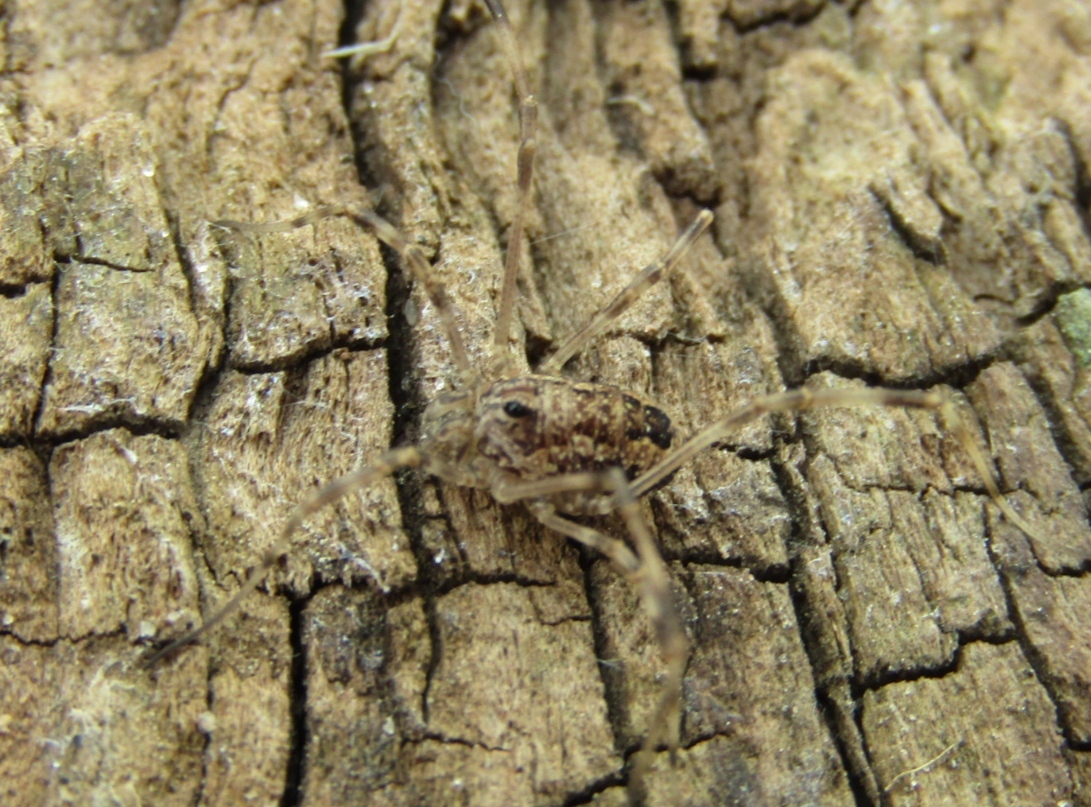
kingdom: Animalia
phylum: Arthropoda
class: Arachnida
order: Opiliones
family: Phalangiidae
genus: Rilaena
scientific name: Rilaena triangularis
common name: Spring harvestman
